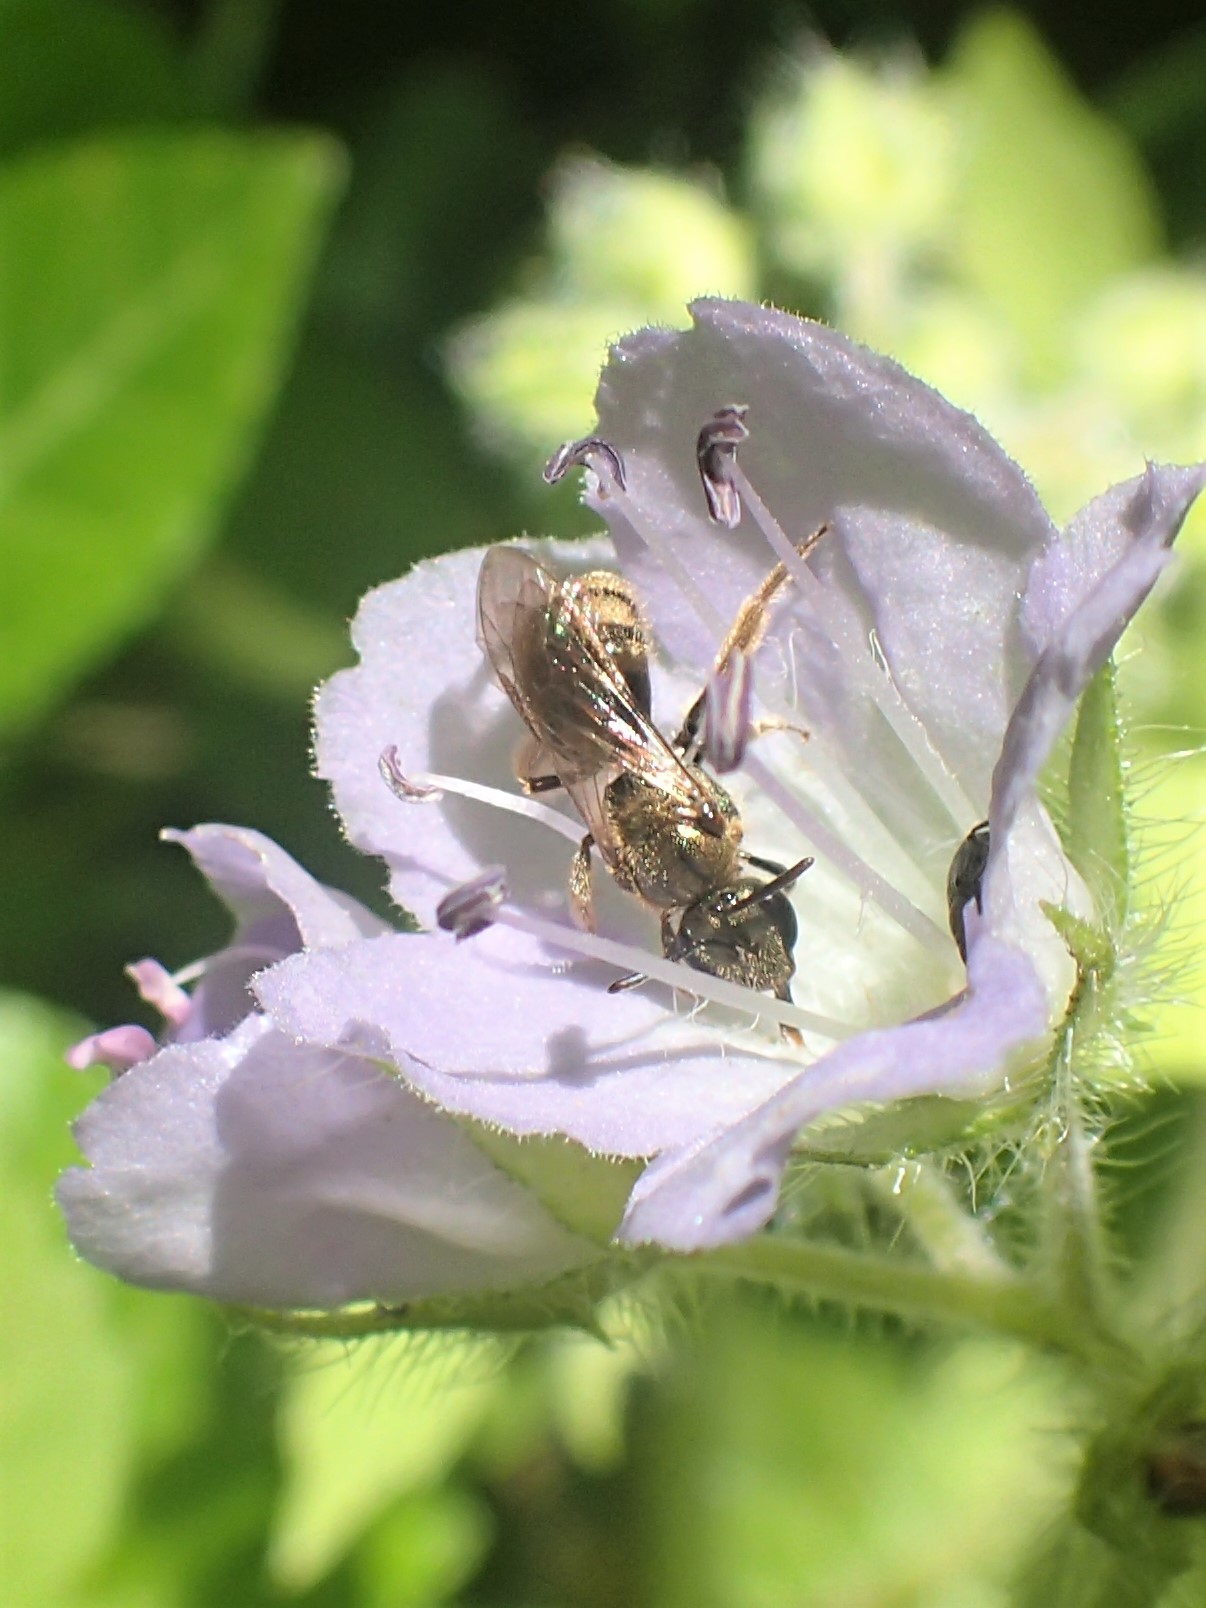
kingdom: Animalia
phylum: Arthropoda
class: Insecta
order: Hymenoptera
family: Halictidae
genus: Dialictus
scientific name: Dialictus
